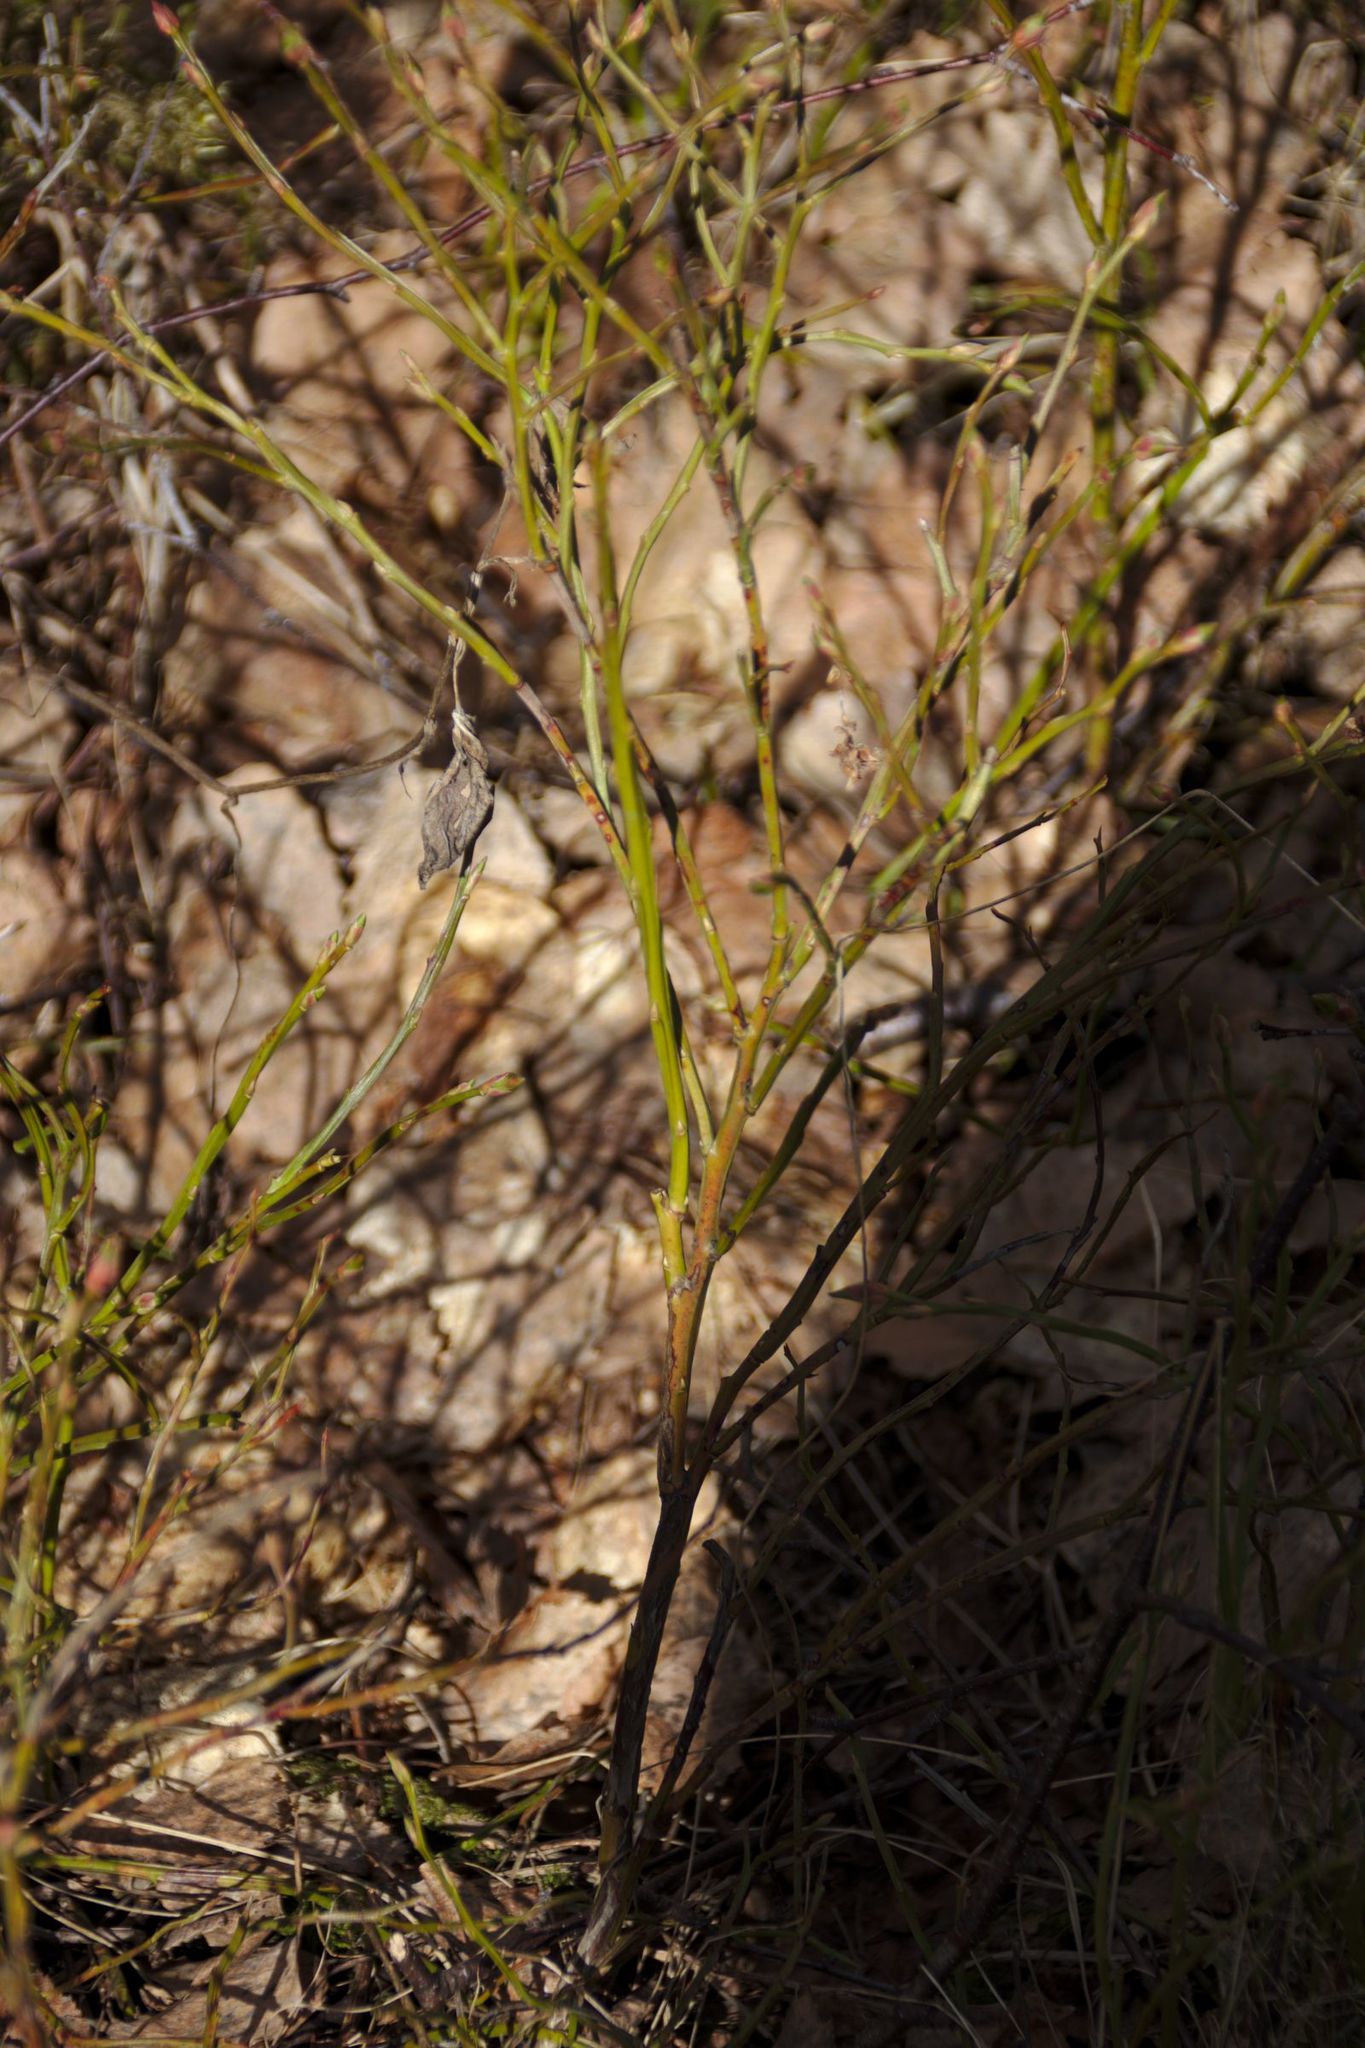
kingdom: Plantae
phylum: Tracheophyta
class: Magnoliopsida
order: Ericales
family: Ericaceae
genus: Vaccinium
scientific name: Vaccinium myrtillus
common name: Bilberry
